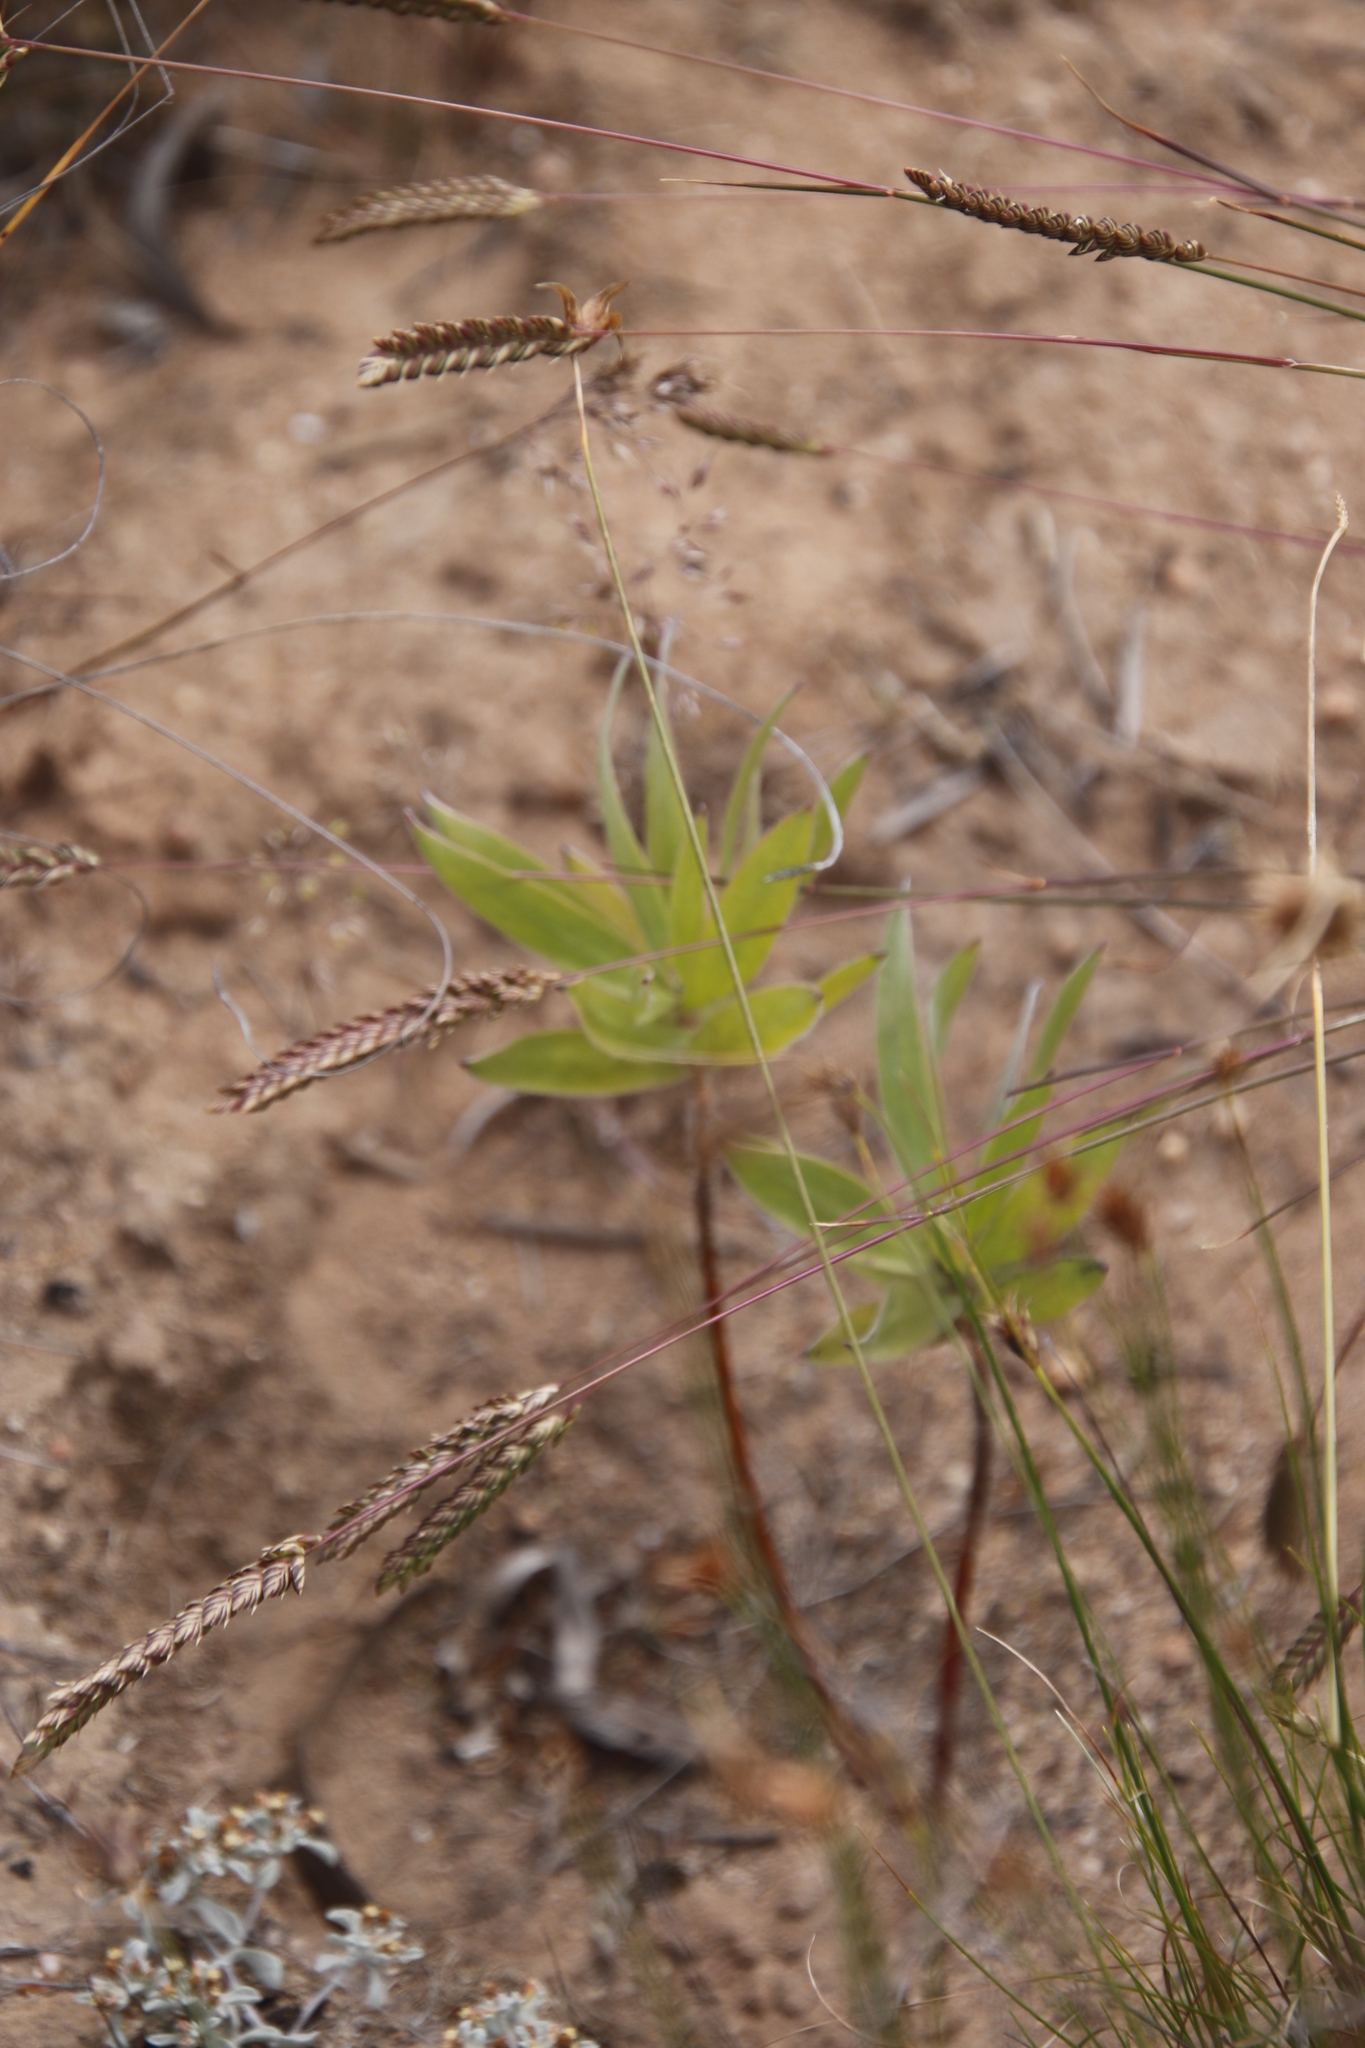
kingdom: Plantae
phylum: Tracheophyta
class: Liliopsida
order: Poales
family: Poaceae
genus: Tribolium
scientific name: Tribolium uniolae
